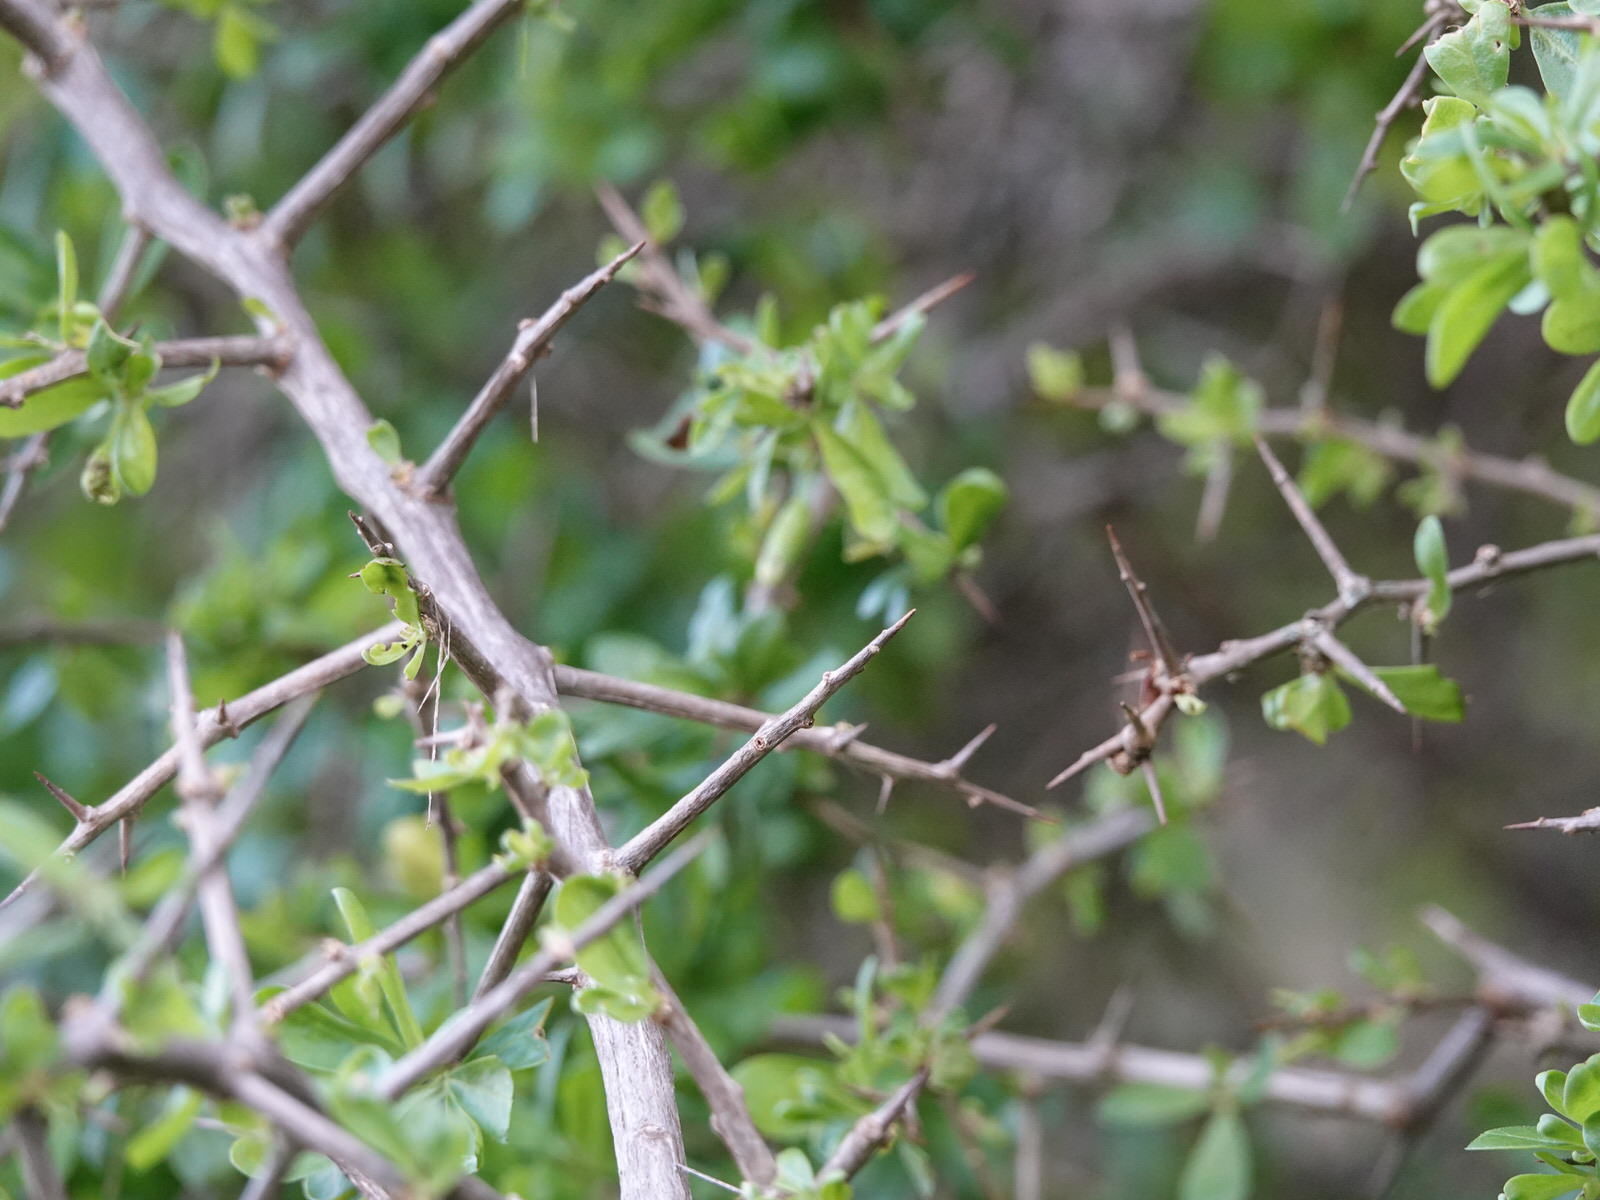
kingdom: Plantae
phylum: Tracheophyta
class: Magnoliopsida
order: Solanales
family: Solanaceae
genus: Lycium
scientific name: Lycium ferocissimum
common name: African boxthorn
